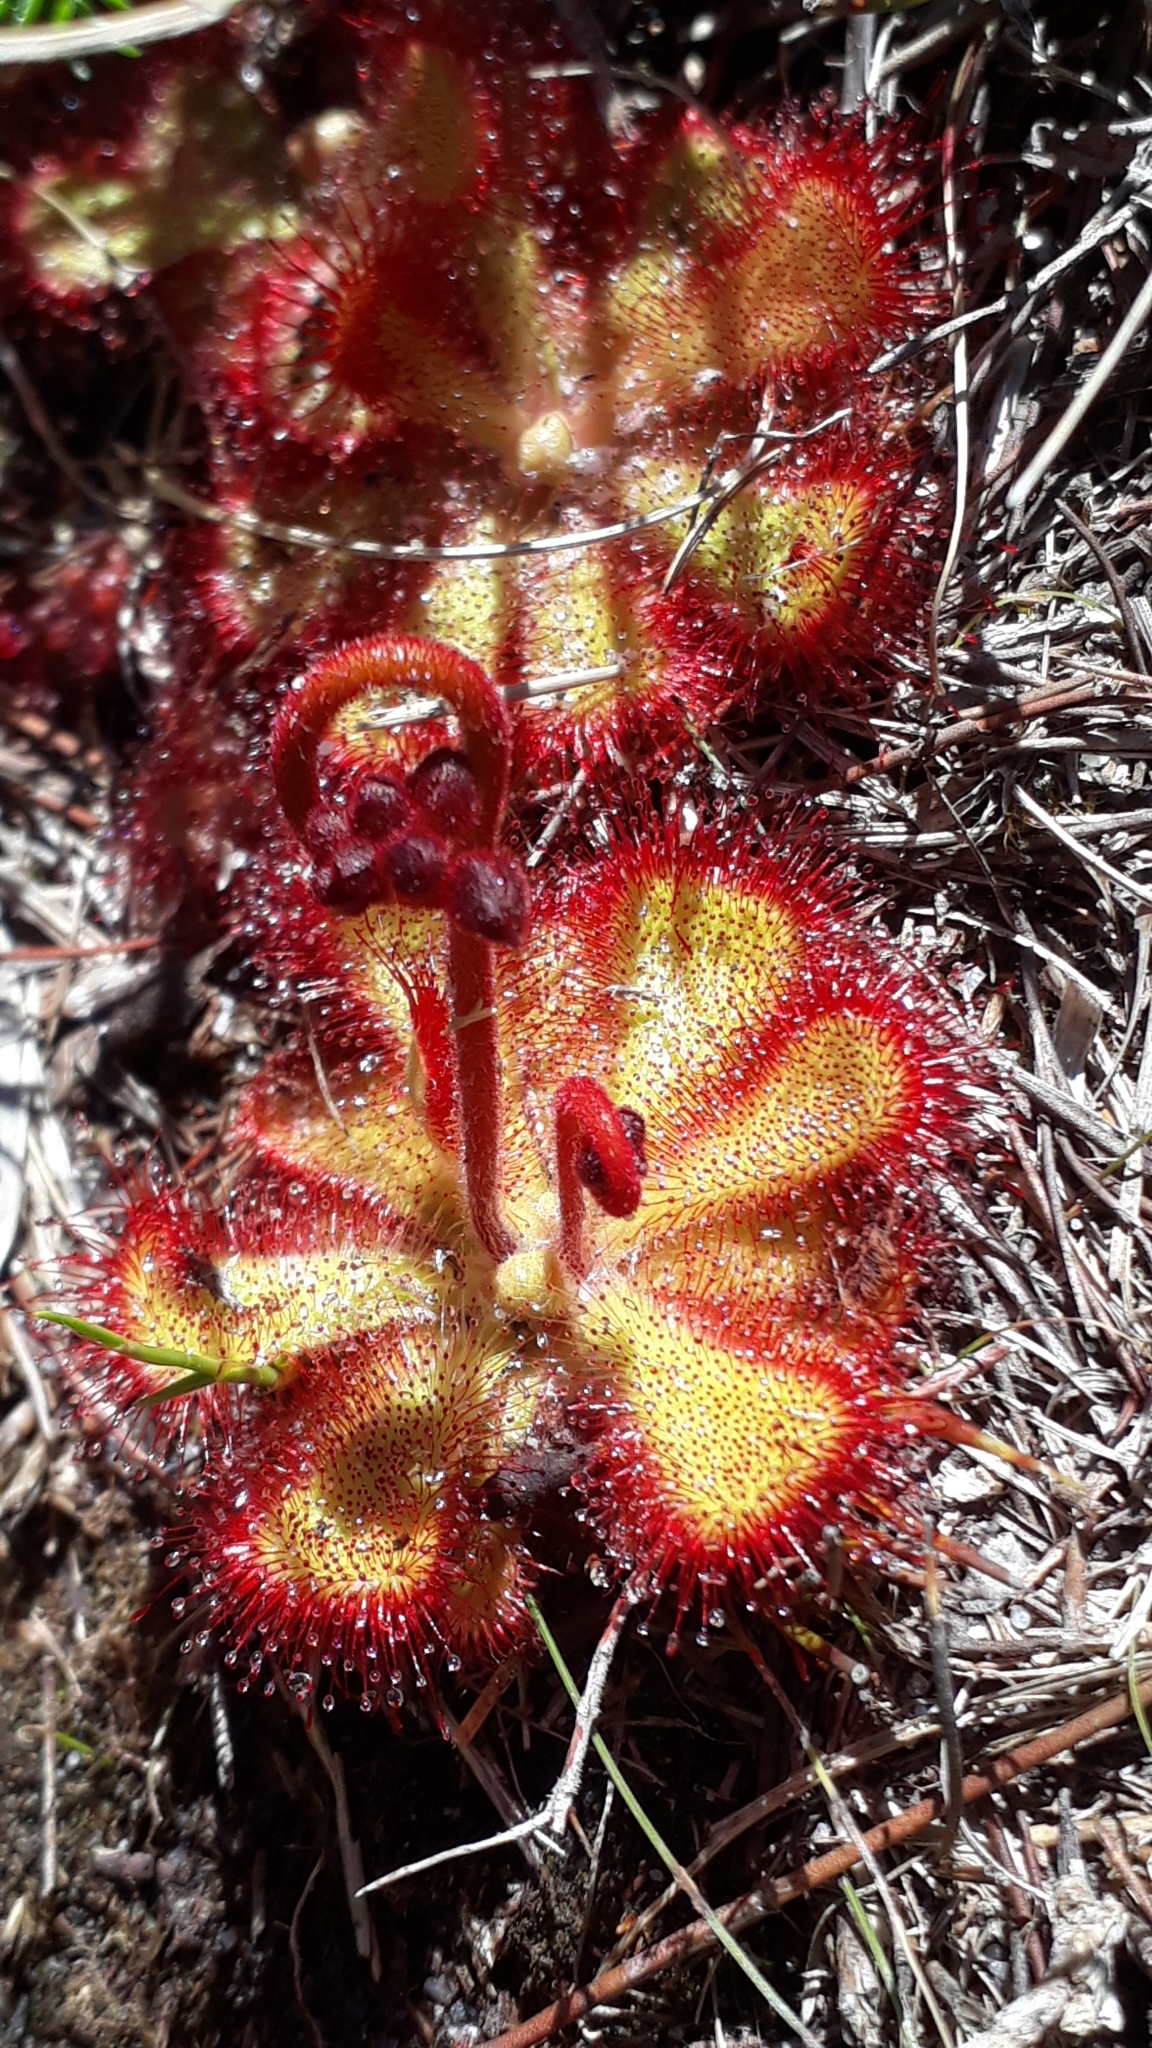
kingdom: Plantae
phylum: Tracheophyta
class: Magnoliopsida
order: Caryophyllales
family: Droseraceae
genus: Drosera
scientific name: Drosera cuneifolia
